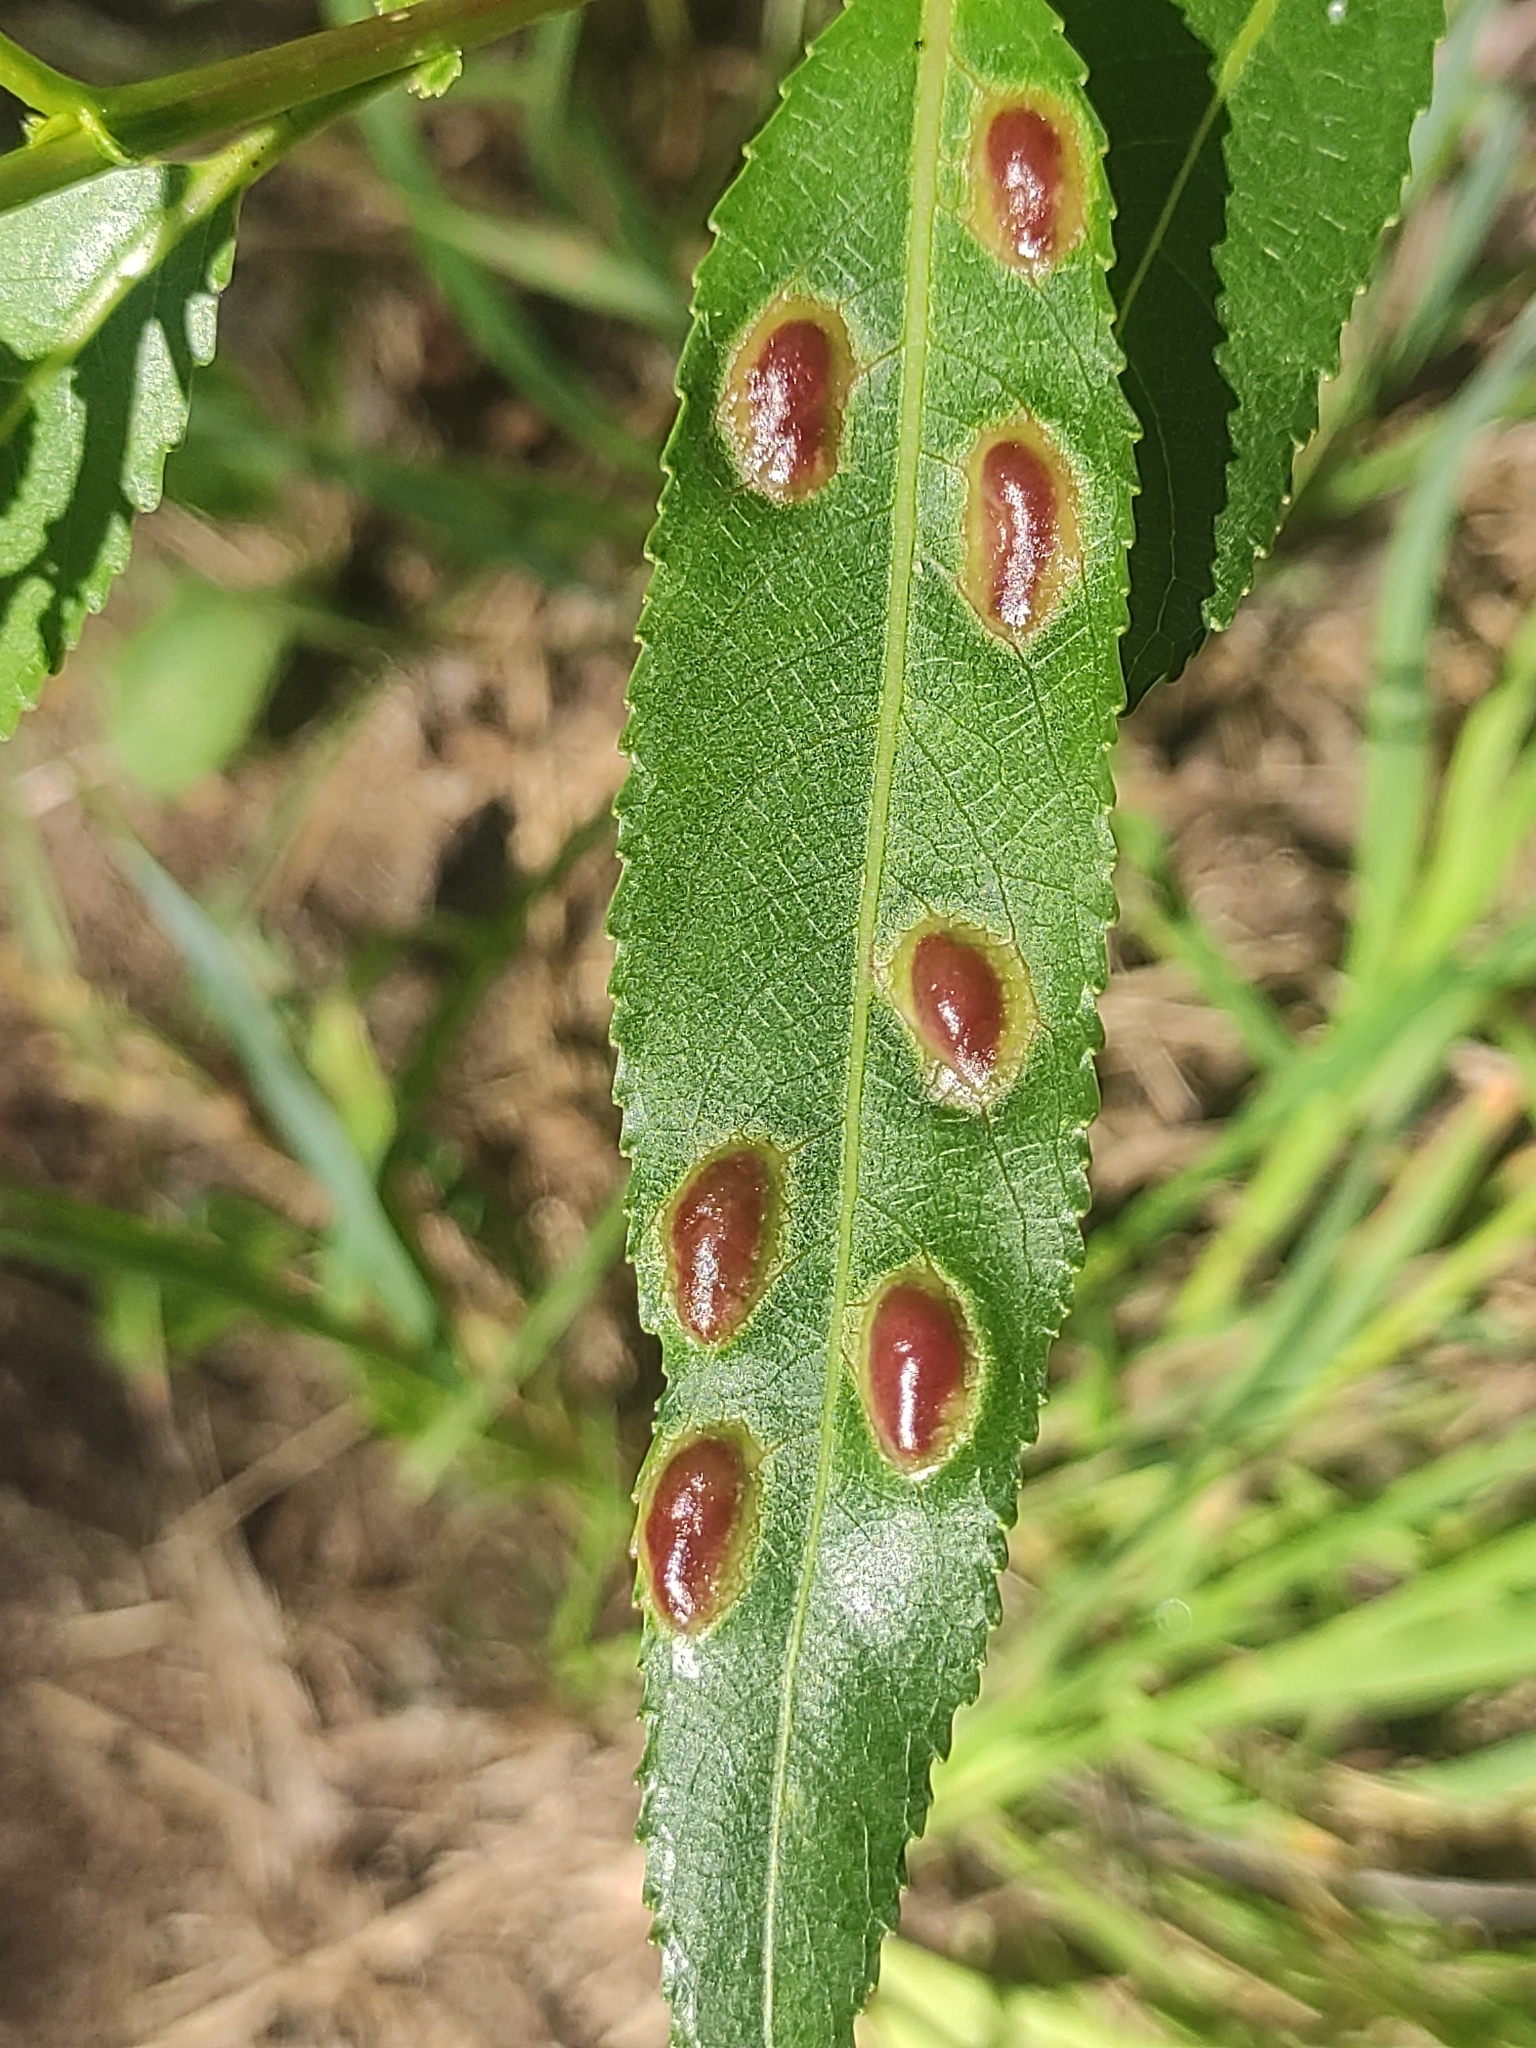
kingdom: Animalia
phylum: Arthropoda
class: Insecta
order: Hymenoptera
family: Tenthredinidae
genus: Pontania
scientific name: Pontania proxima
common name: Common sawfly
